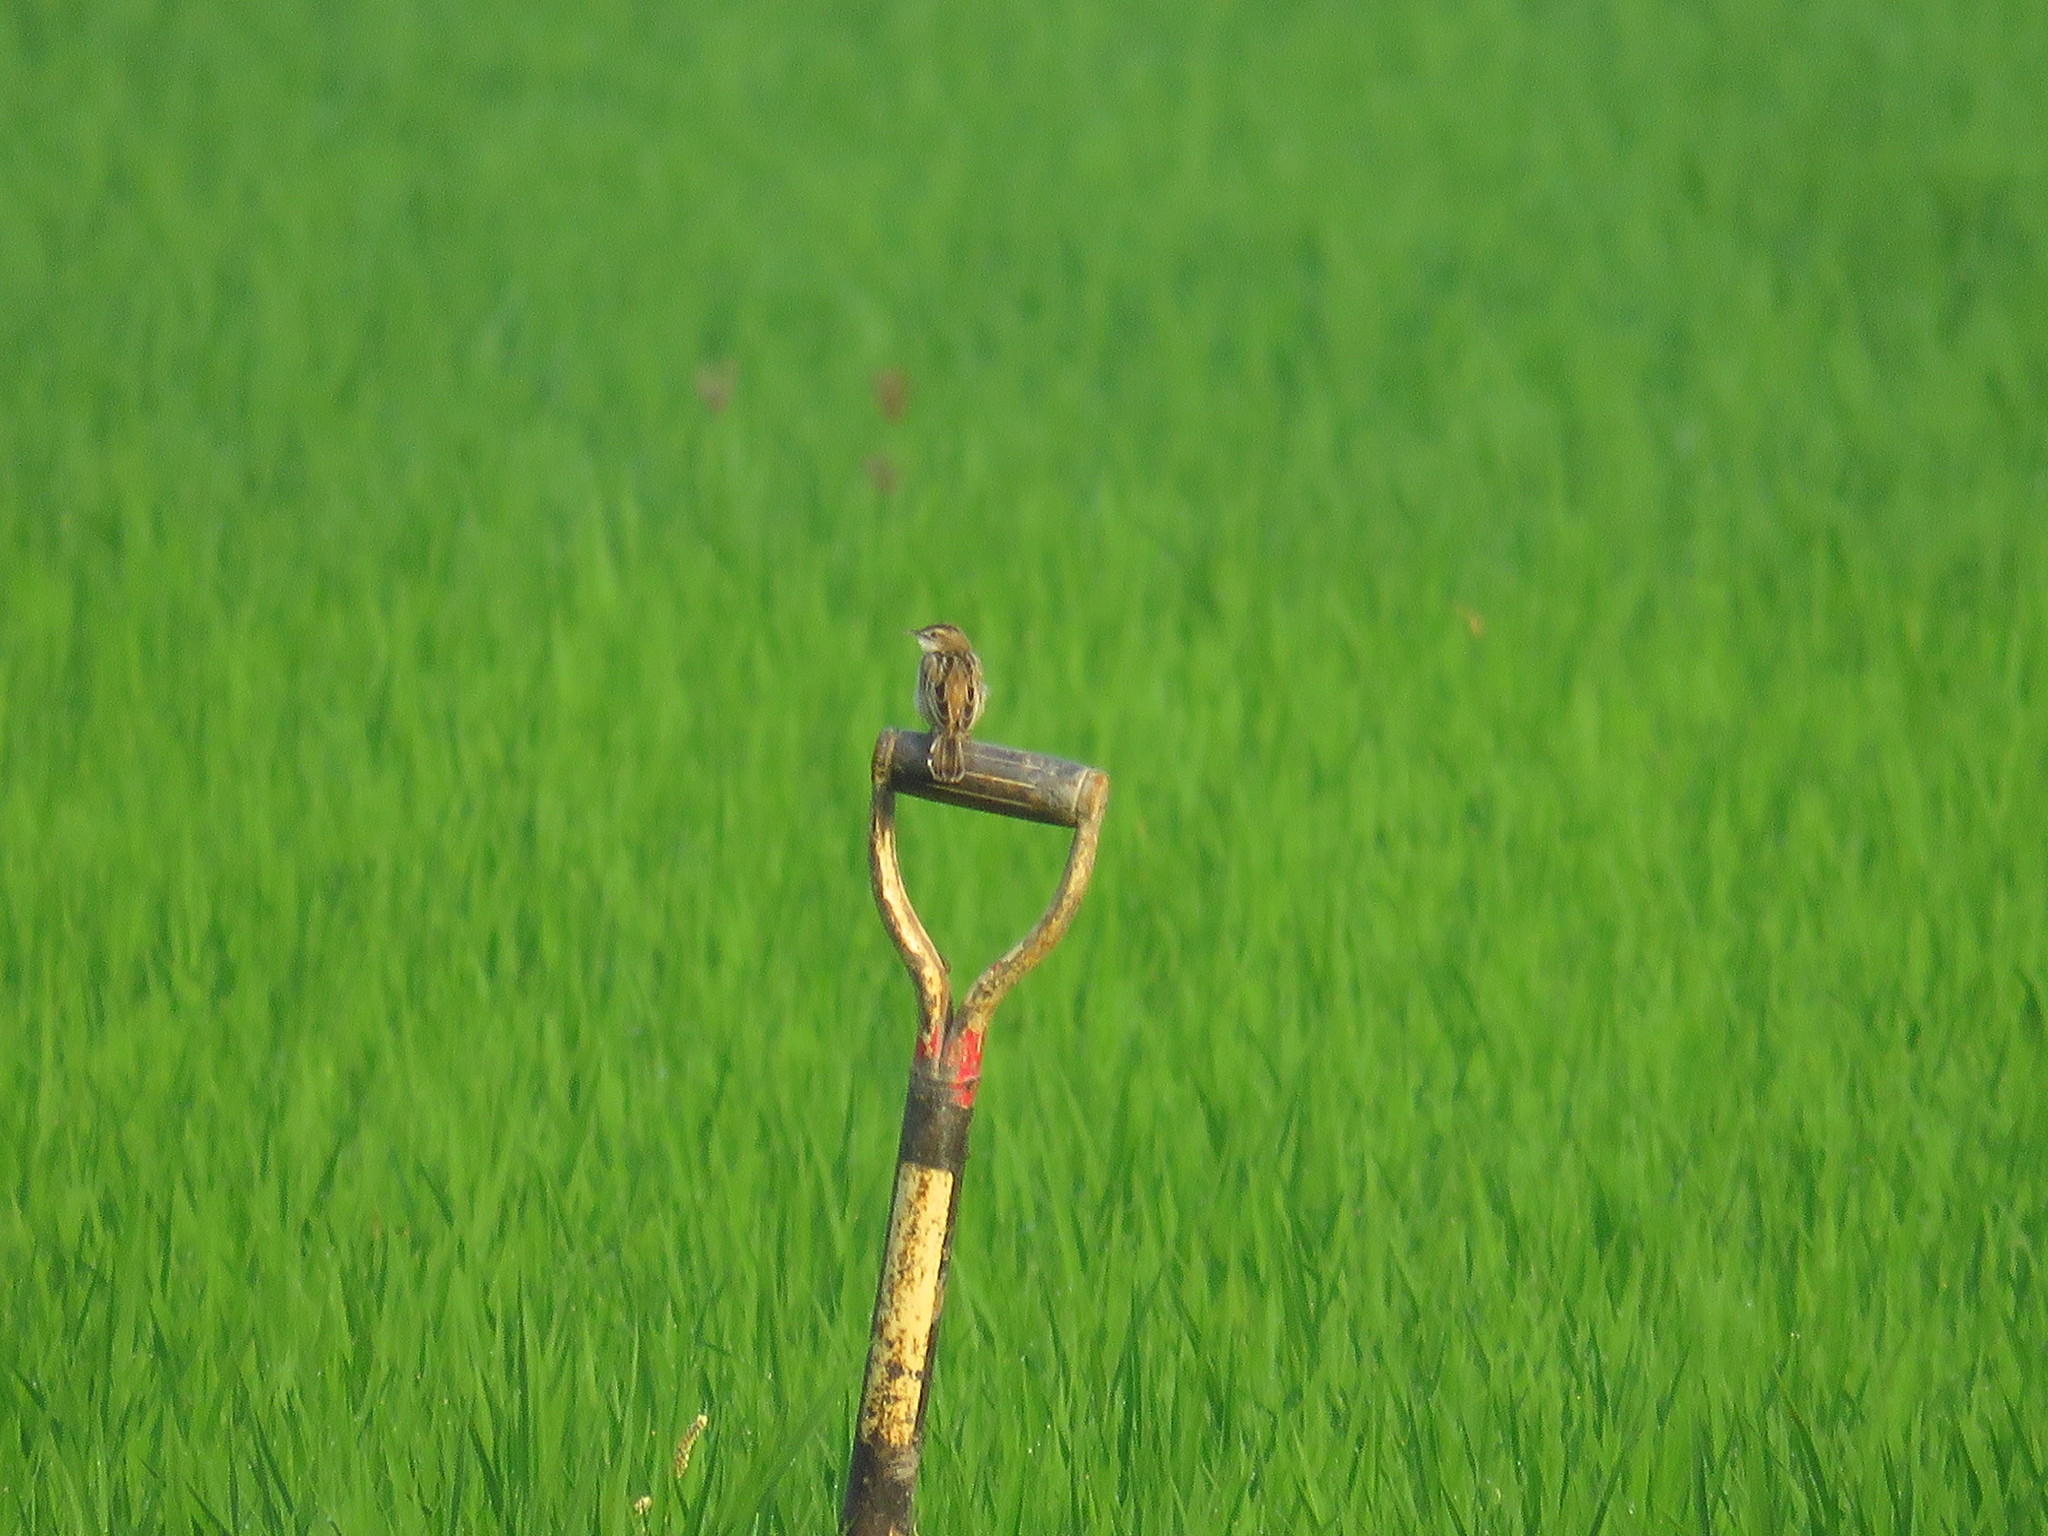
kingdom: Animalia
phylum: Chordata
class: Aves
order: Passeriformes
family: Cisticolidae
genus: Cisticola
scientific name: Cisticola juncidis
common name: Zitting cisticola
